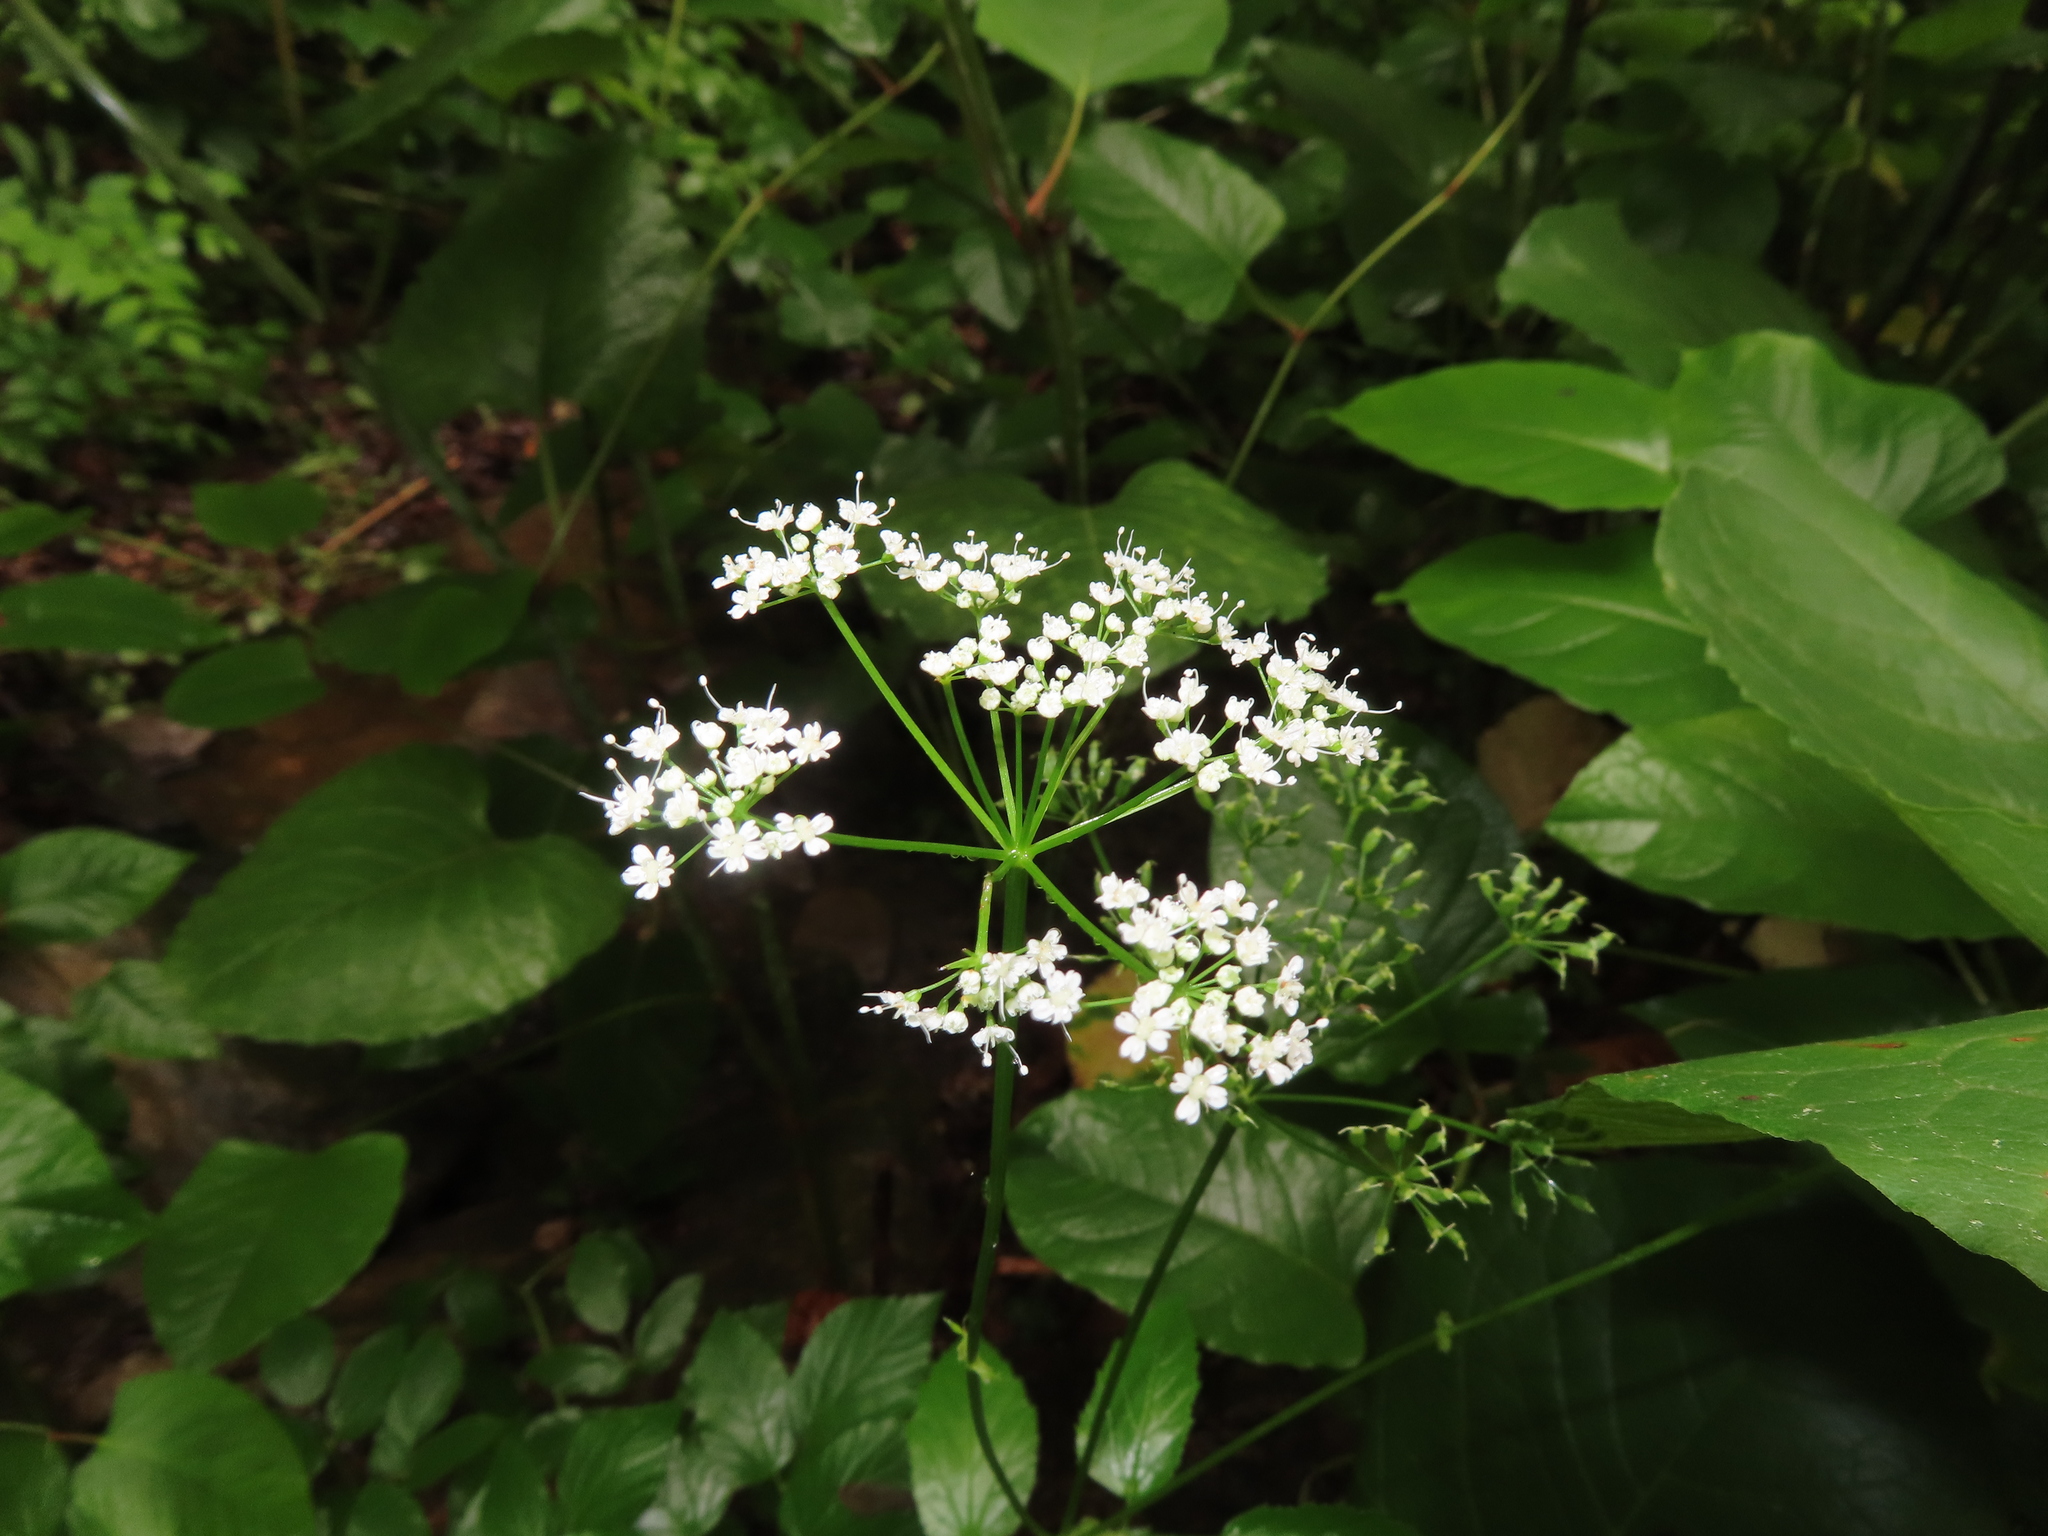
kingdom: Plantae
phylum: Tracheophyta
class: Magnoliopsida
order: Apiales
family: Apiaceae
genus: Aegopodium
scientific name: Aegopodium podagraria
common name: Ground-elder
